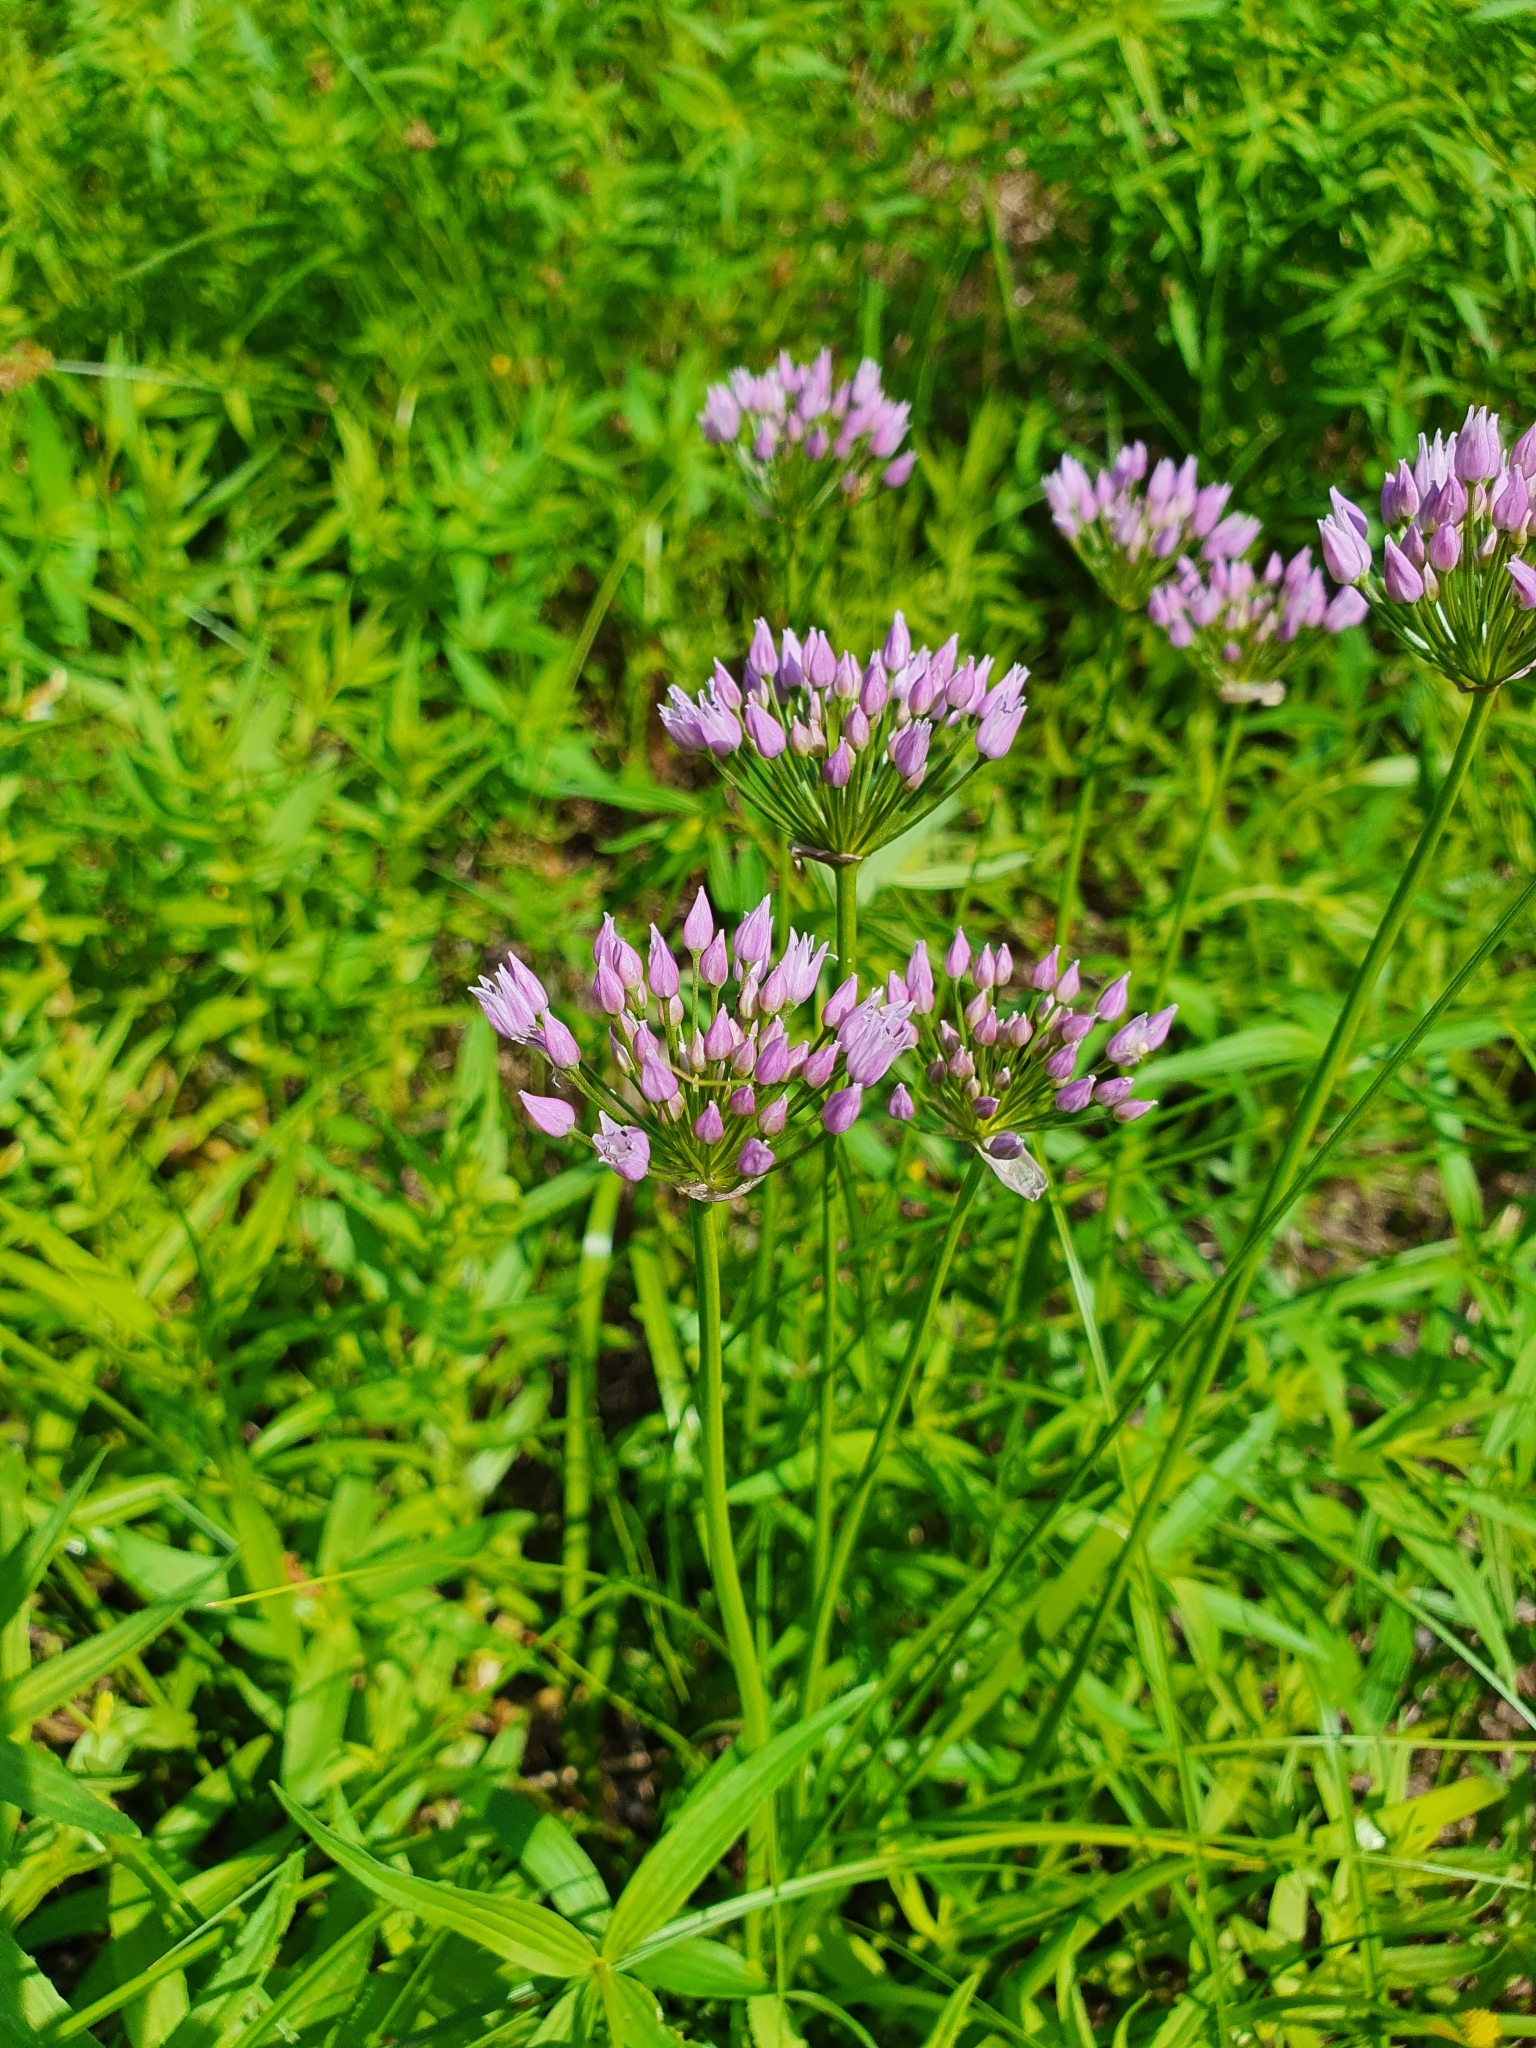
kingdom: Plantae
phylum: Tracheophyta
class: Liliopsida
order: Asparagales
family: Amaryllidaceae
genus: Allium
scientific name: Allium angulosum
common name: Mouse garlic
